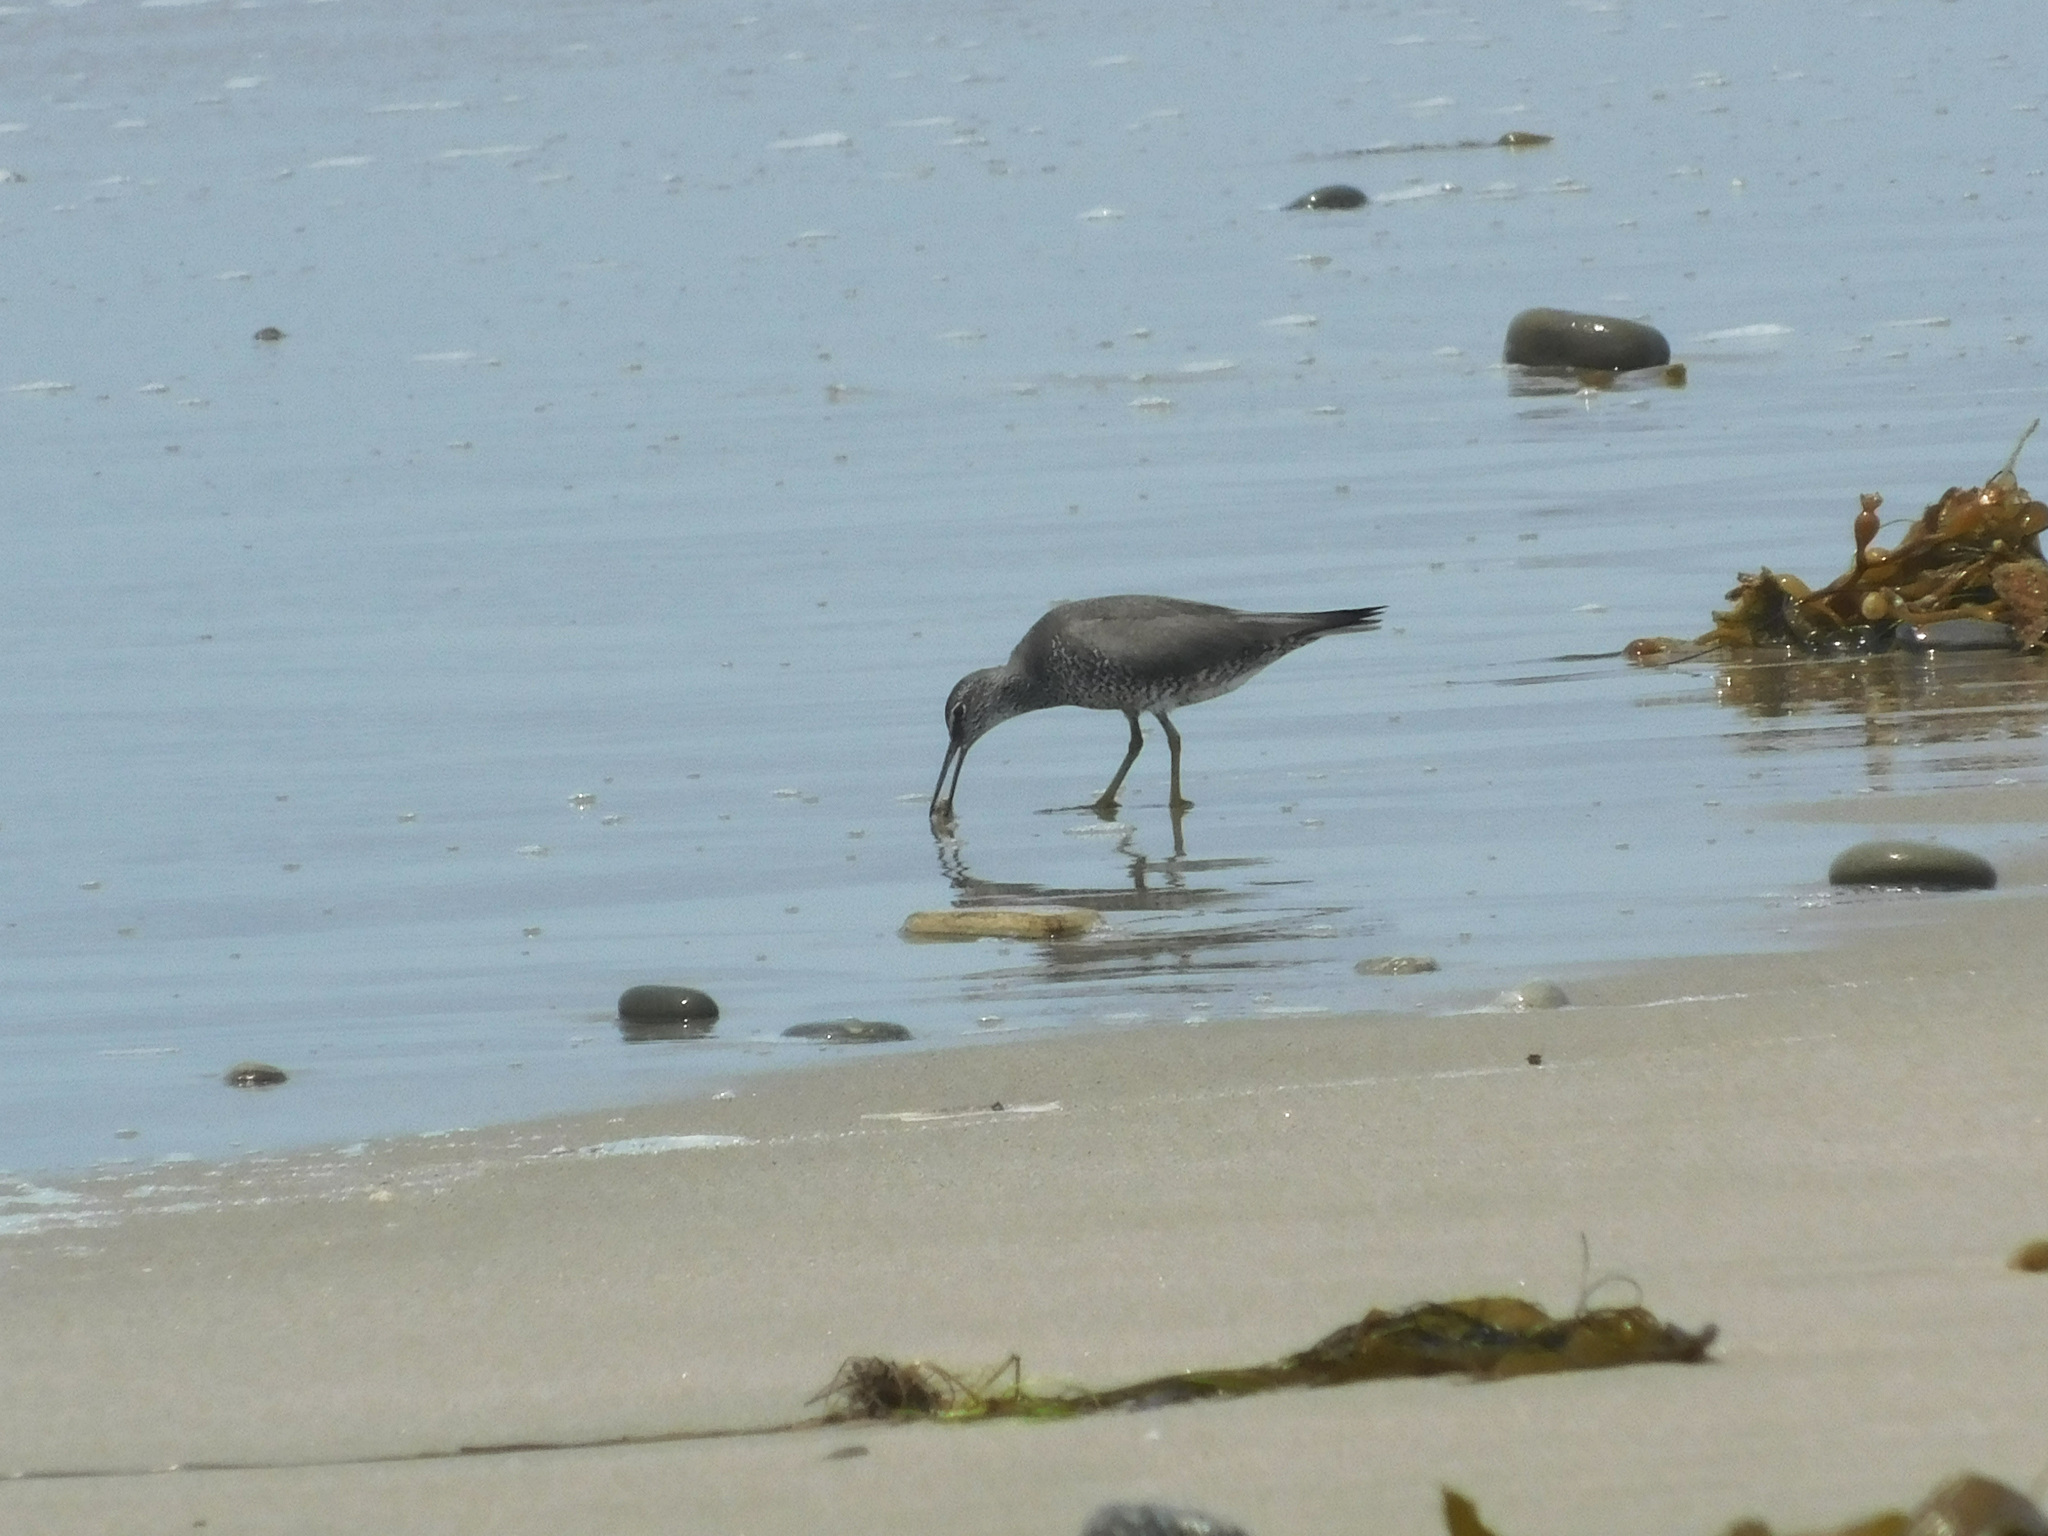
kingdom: Animalia
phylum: Chordata
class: Aves
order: Charadriiformes
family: Scolopacidae
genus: Tringa
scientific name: Tringa incana
